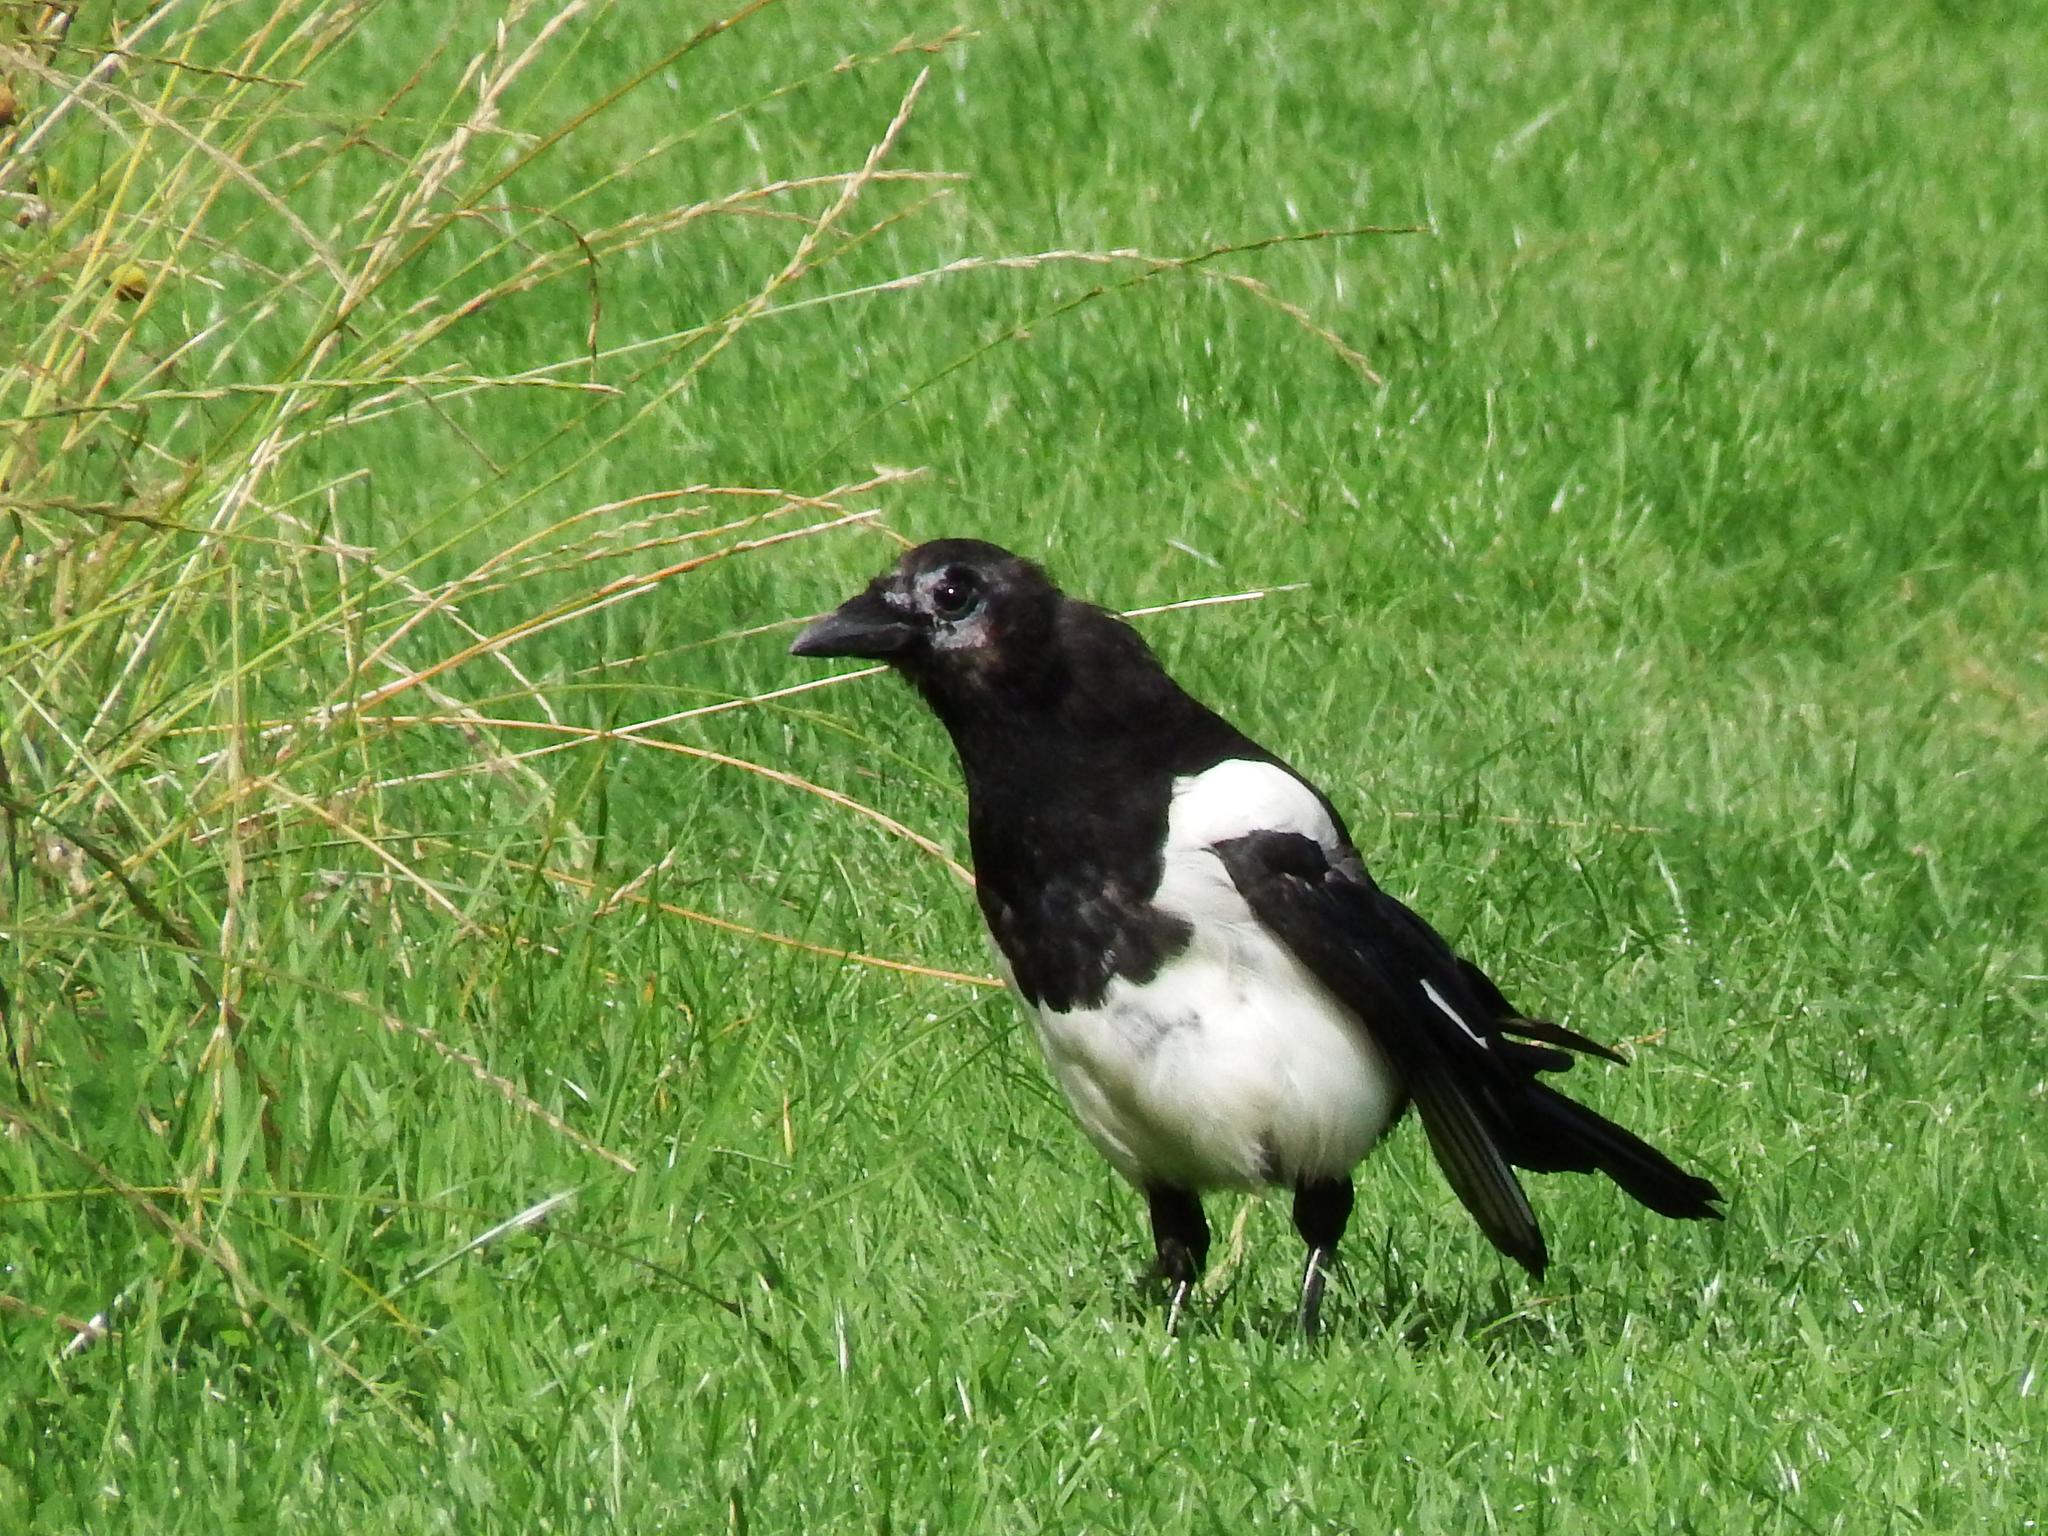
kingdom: Animalia
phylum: Chordata
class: Aves
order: Passeriformes
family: Corvidae
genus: Pica
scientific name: Pica pica
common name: Eurasian magpie
